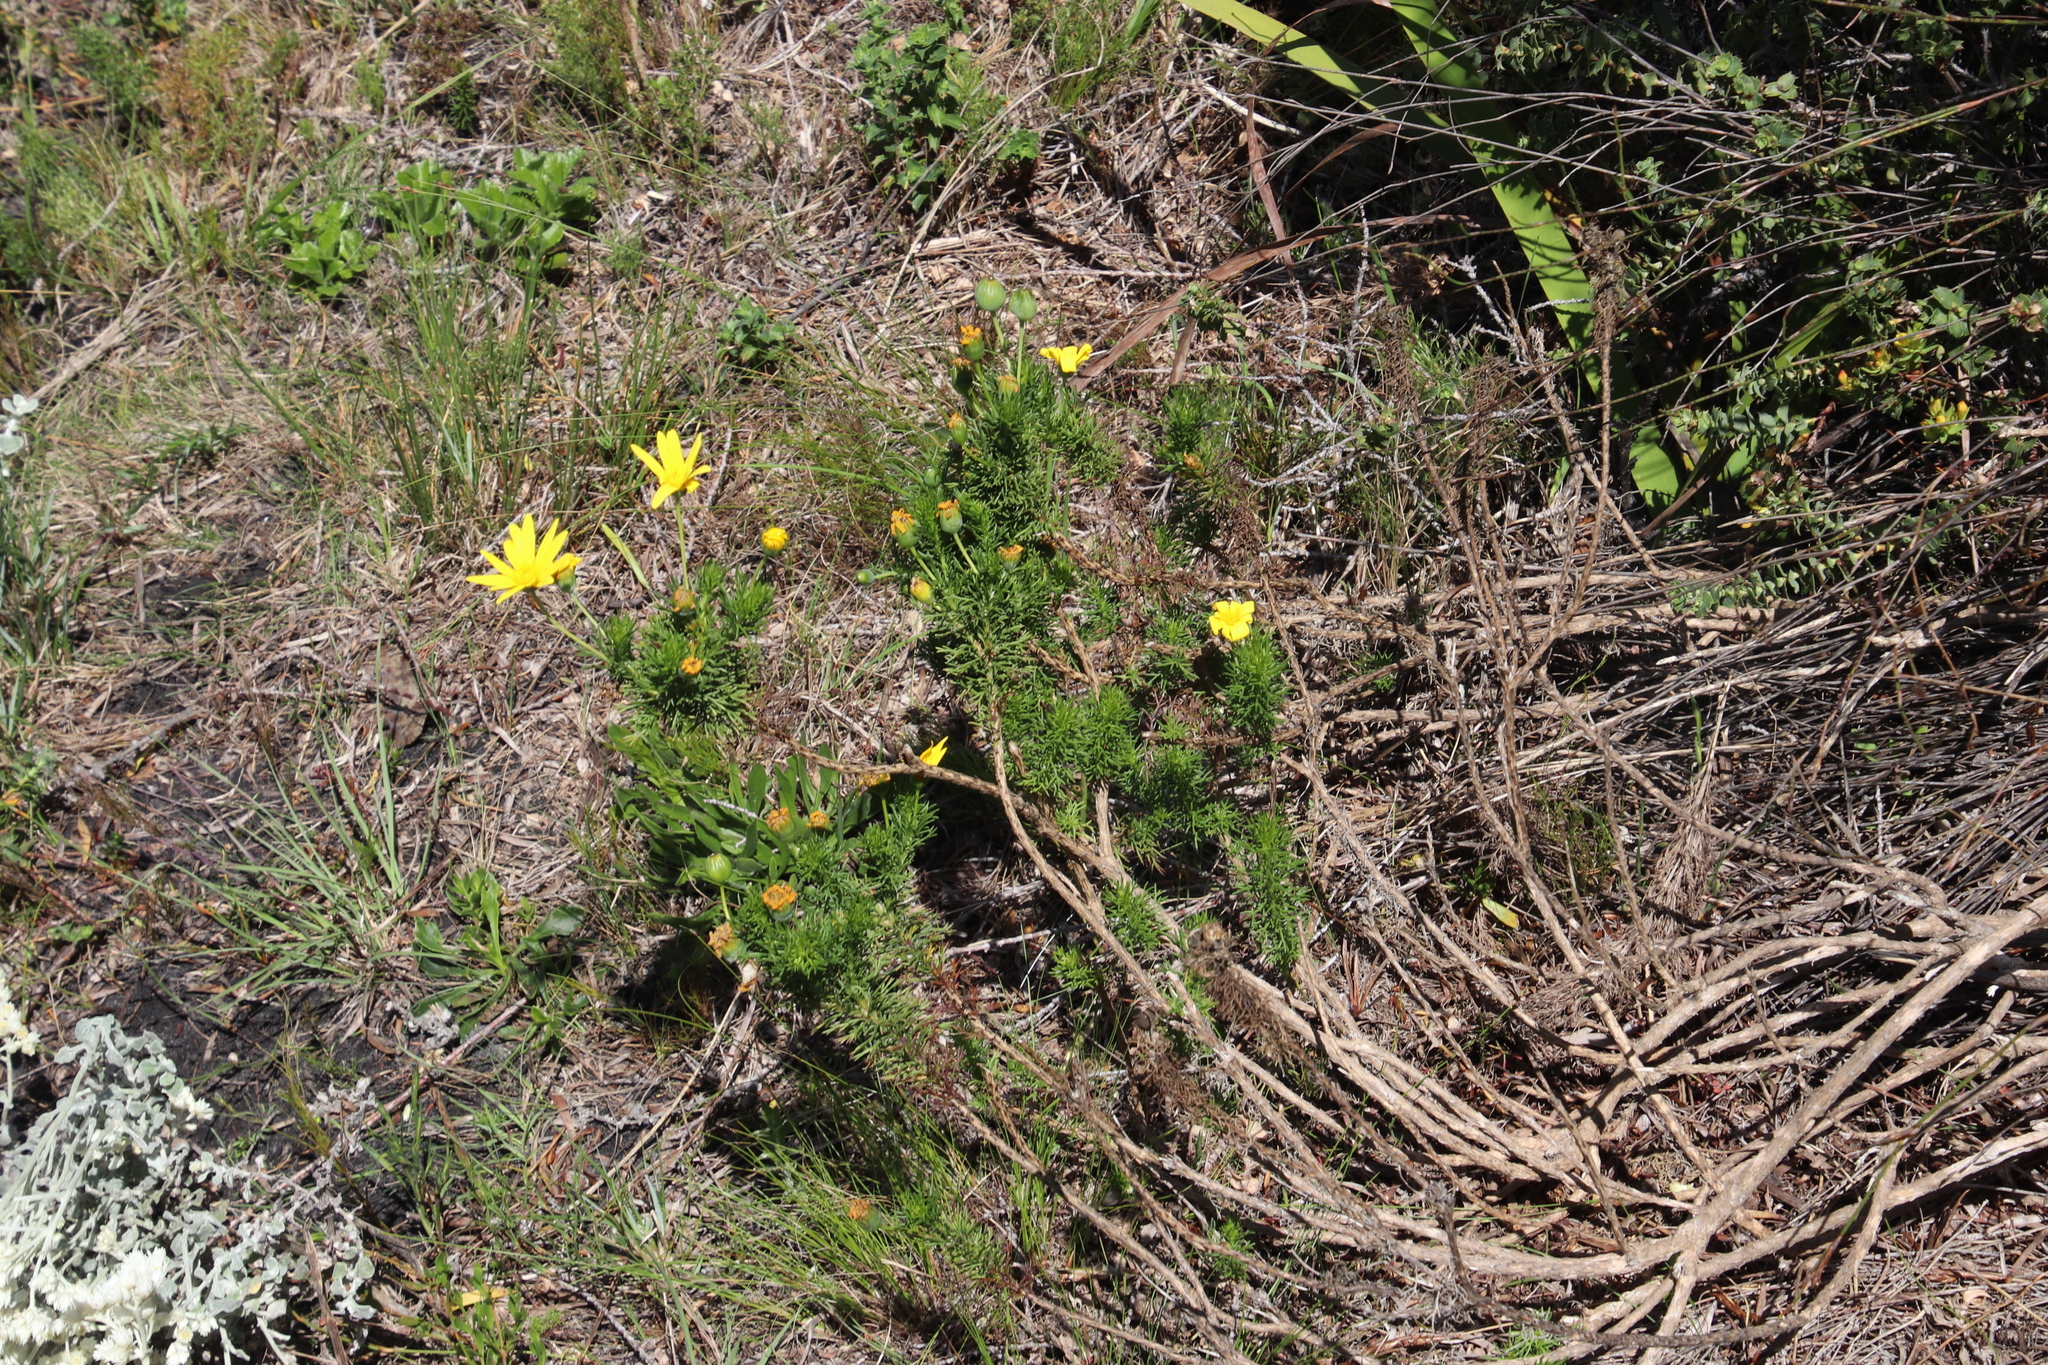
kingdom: Plantae
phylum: Tracheophyta
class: Magnoliopsida
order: Asterales
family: Asteraceae
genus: Euryops
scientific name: Euryops abrotanifolius
